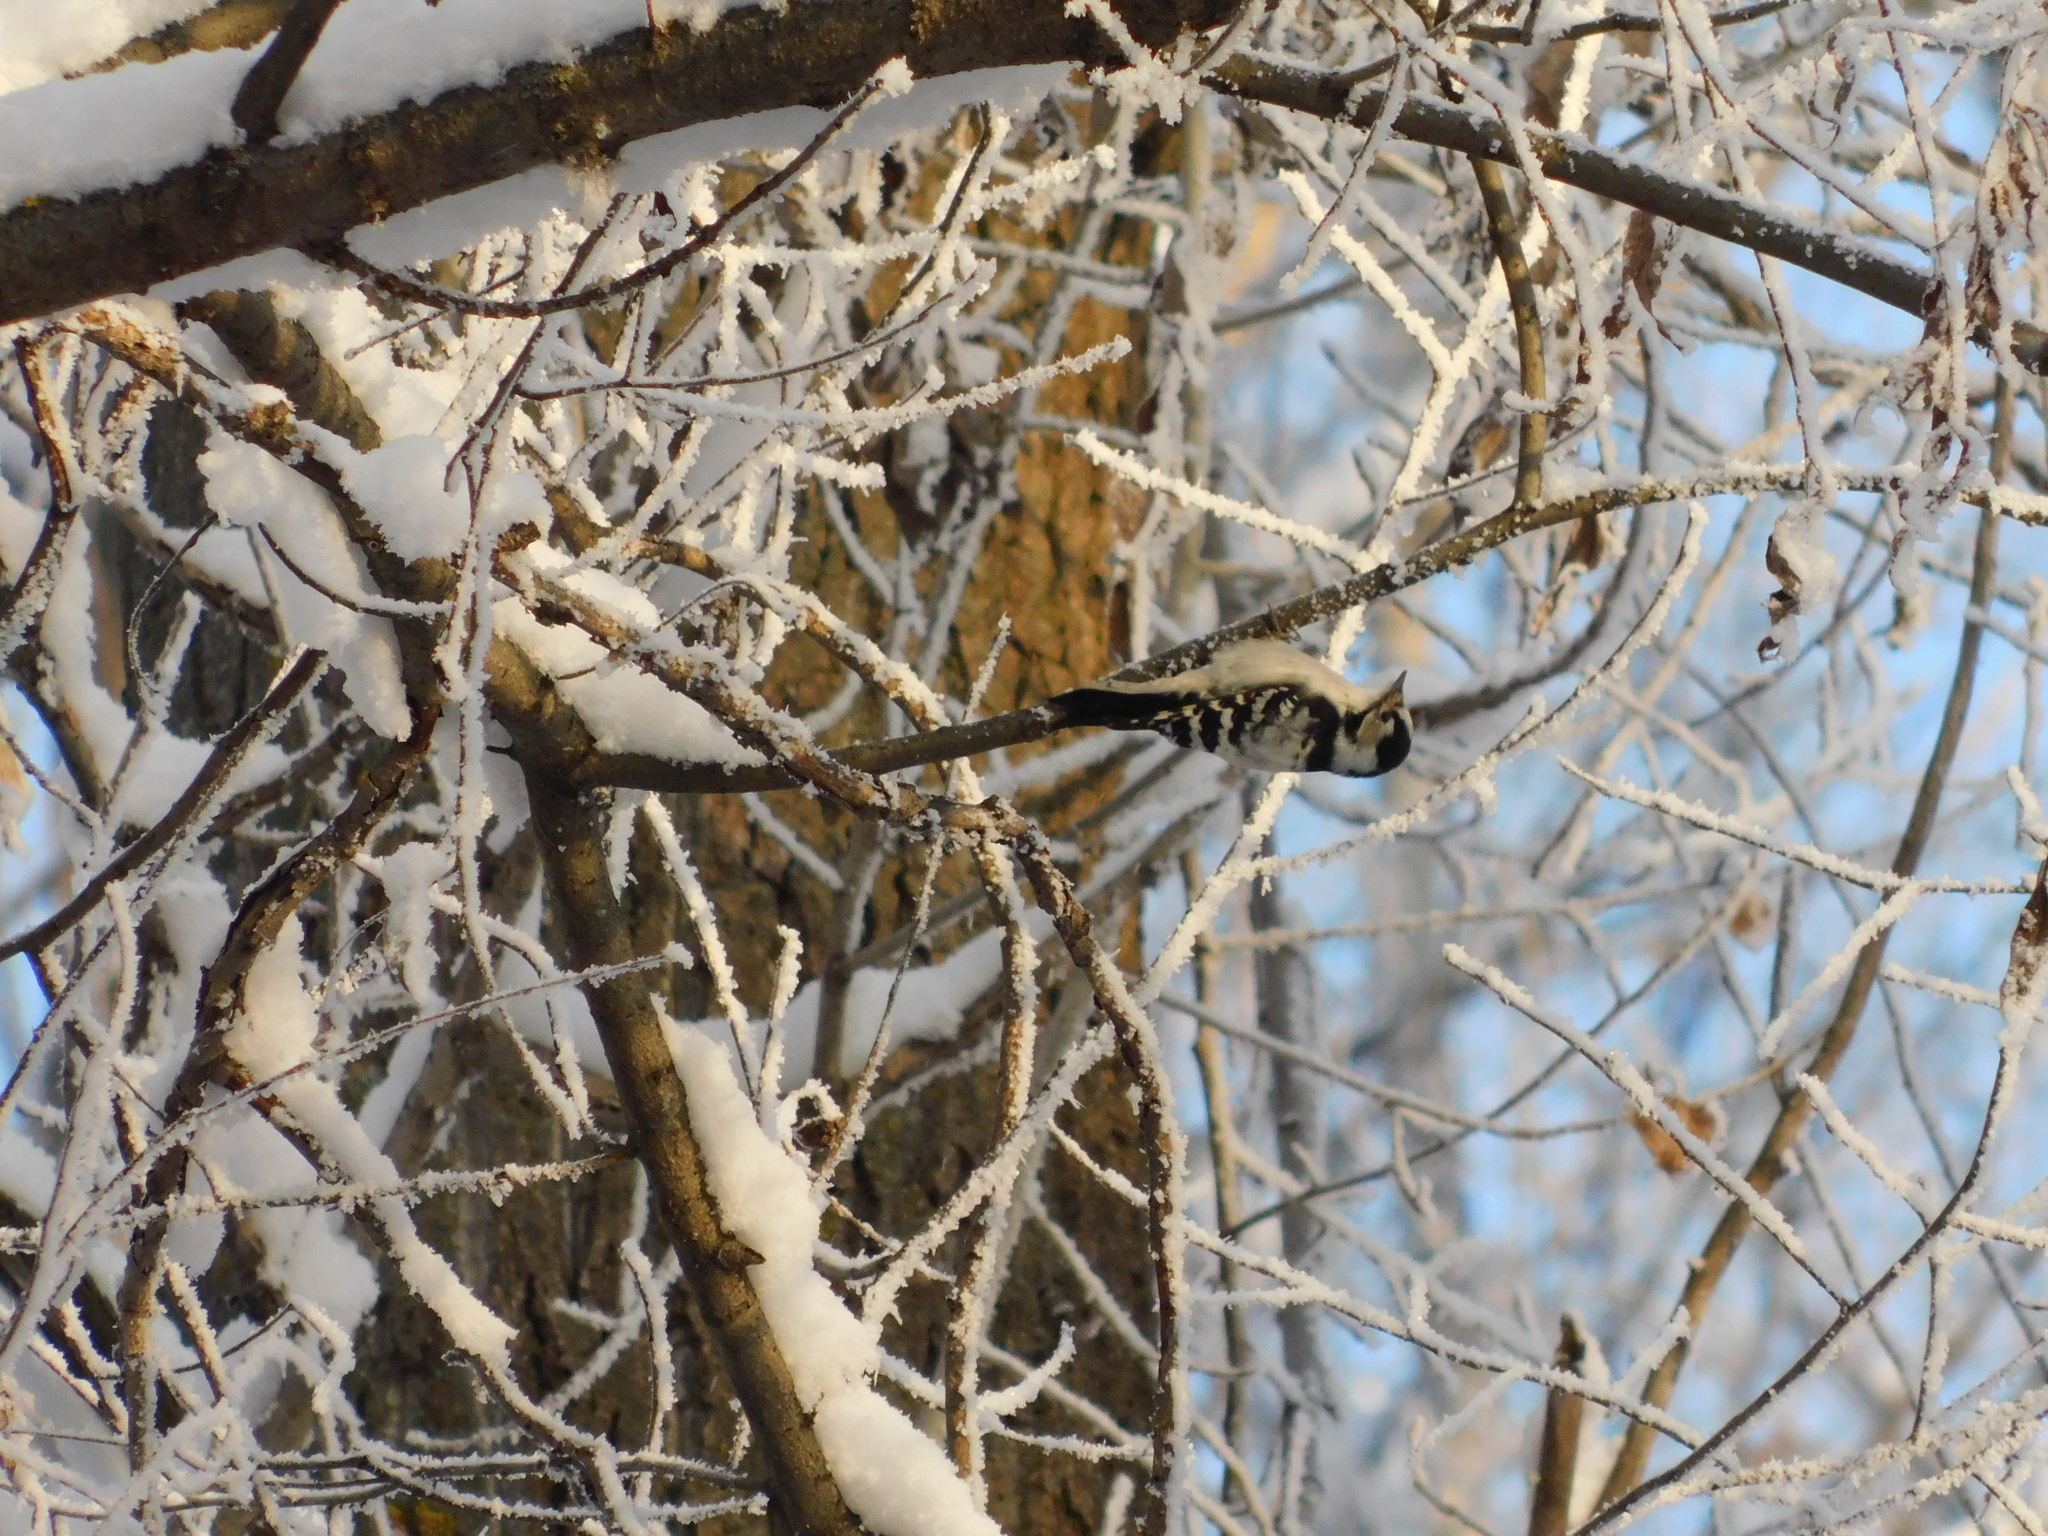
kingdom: Animalia
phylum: Chordata
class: Aves
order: Piciformes
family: Picidae
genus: Dryobates
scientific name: Dryobates minor
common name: Lesser spotted woodpecker
